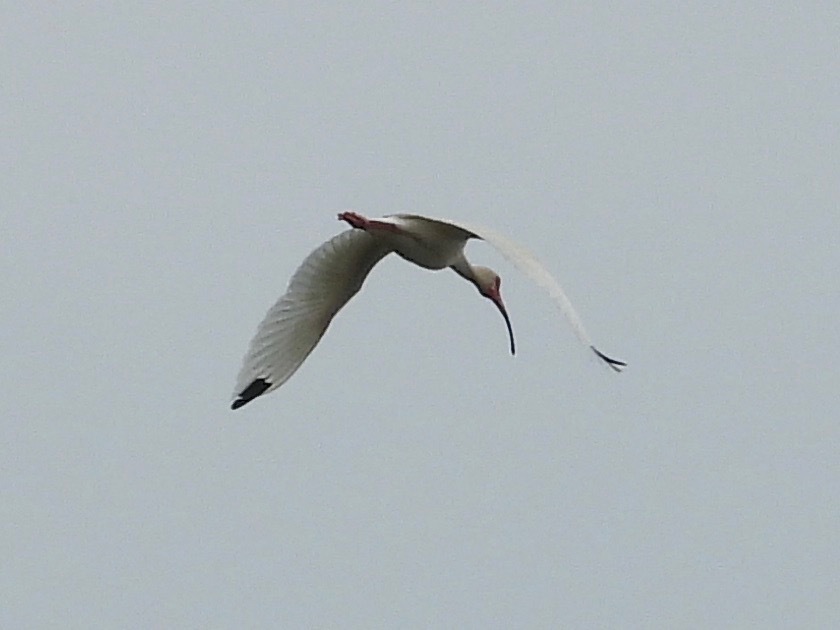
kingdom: Animalia
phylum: Chordata
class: Aves
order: Pelecaniformes
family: Threskiornithidae
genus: Eudocimus
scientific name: Eudocimus albus
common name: White ibis
